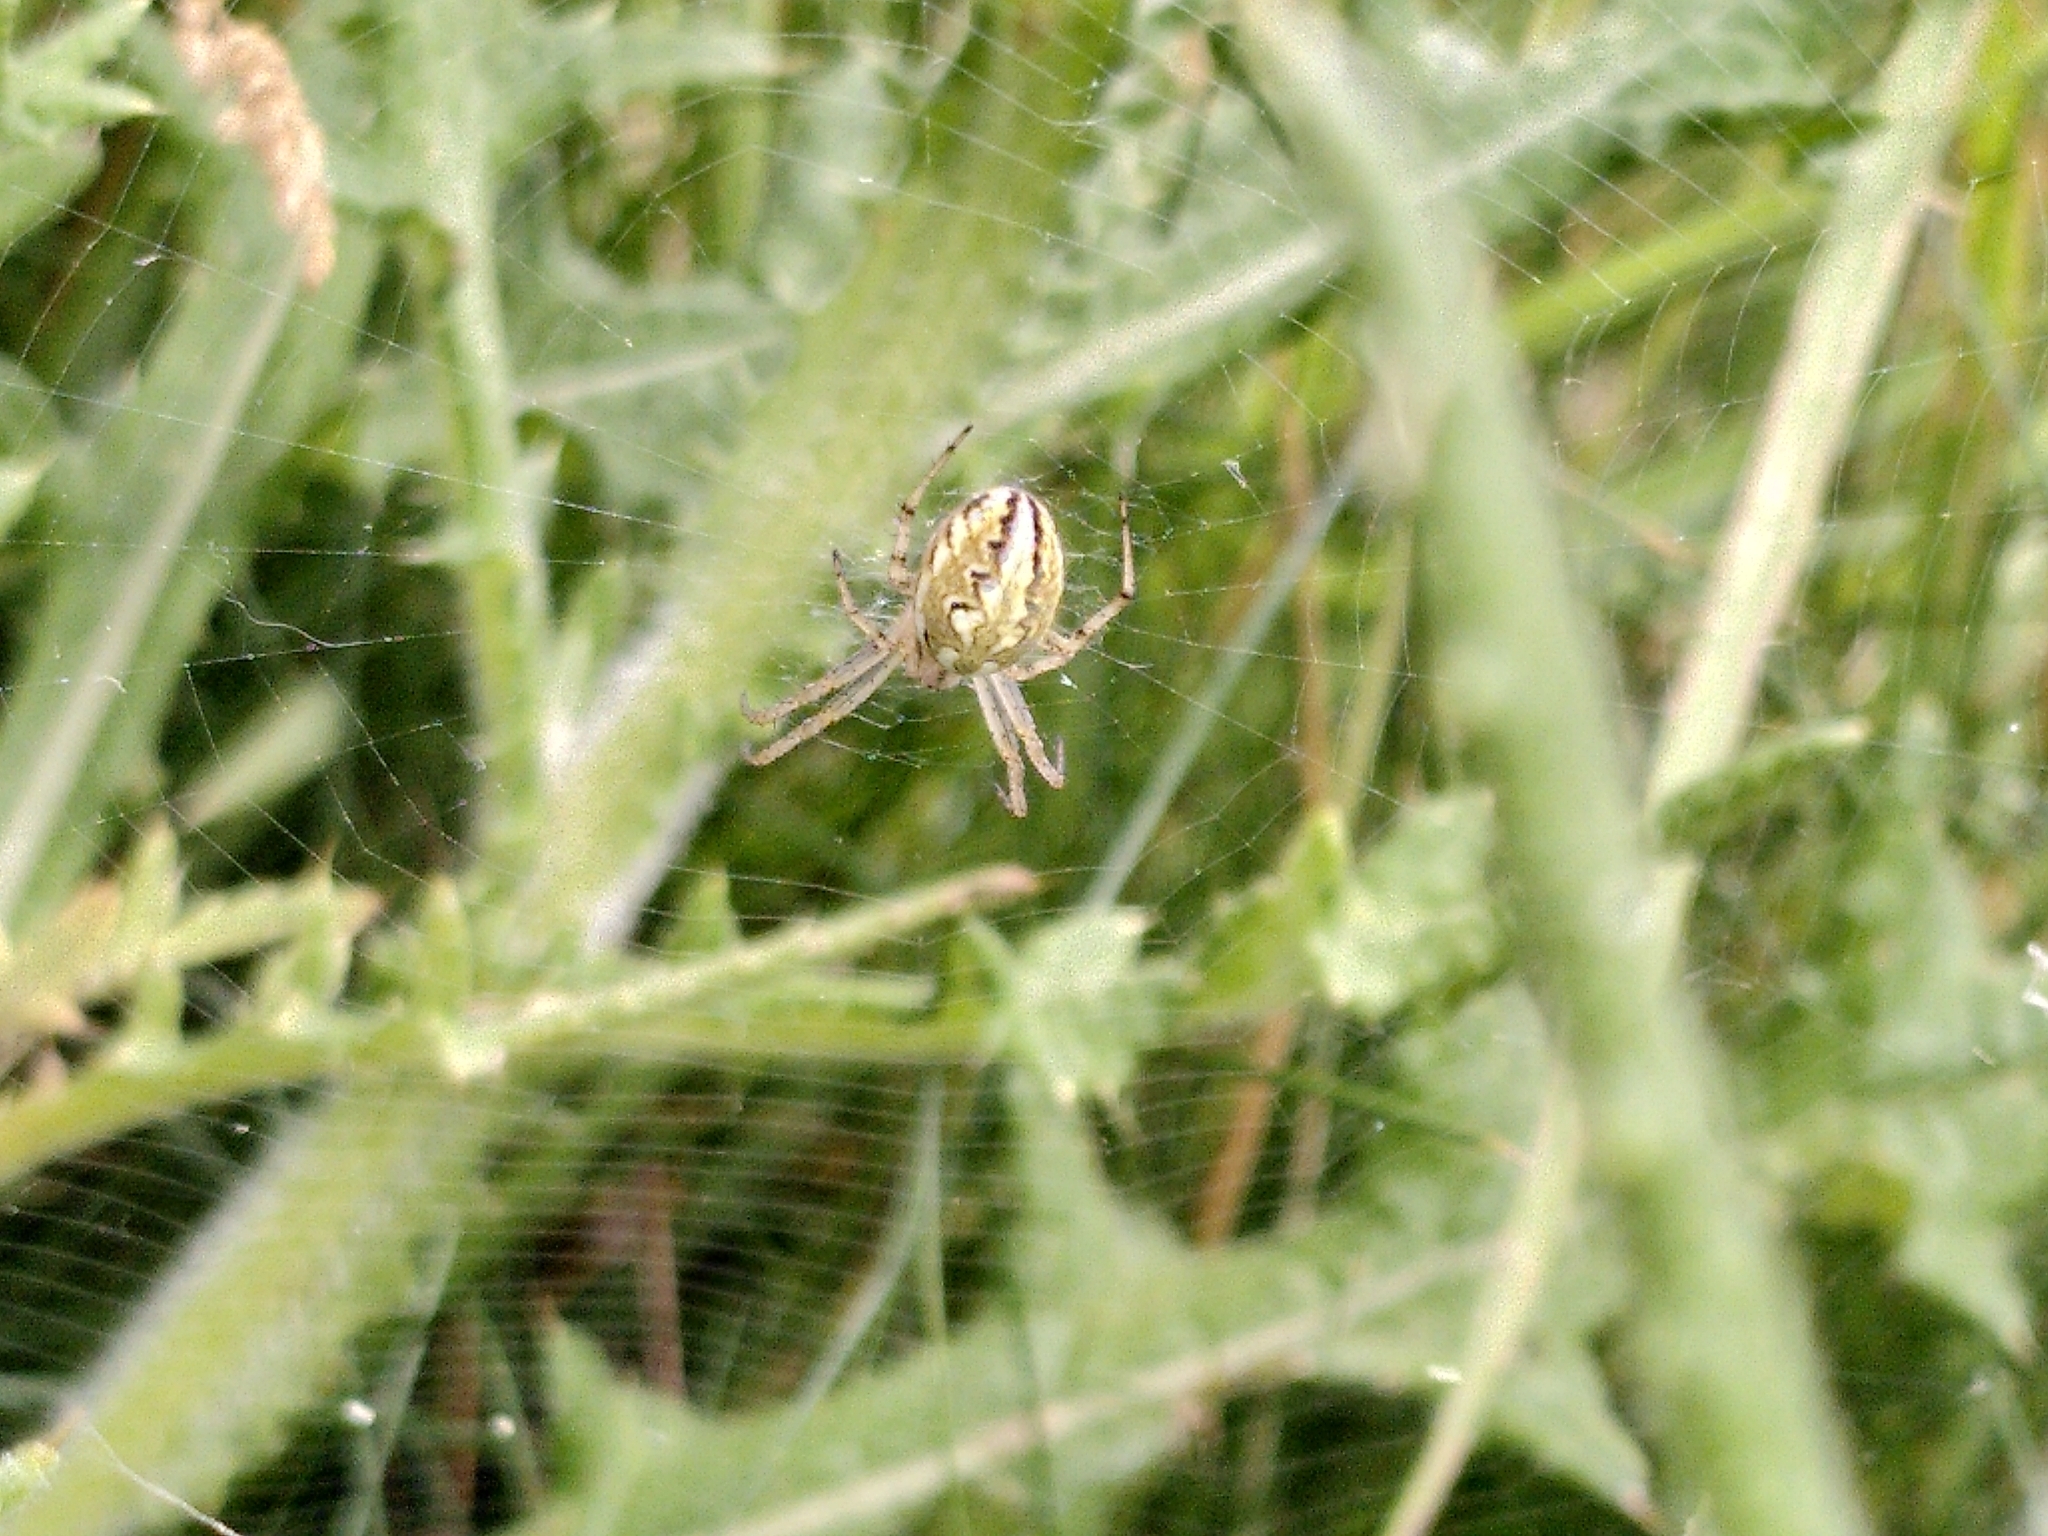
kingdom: Animalia
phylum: Arthropoda
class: Arachnida
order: Araneae
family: Araneidae
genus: Neoscona
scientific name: Neoscona adianta
